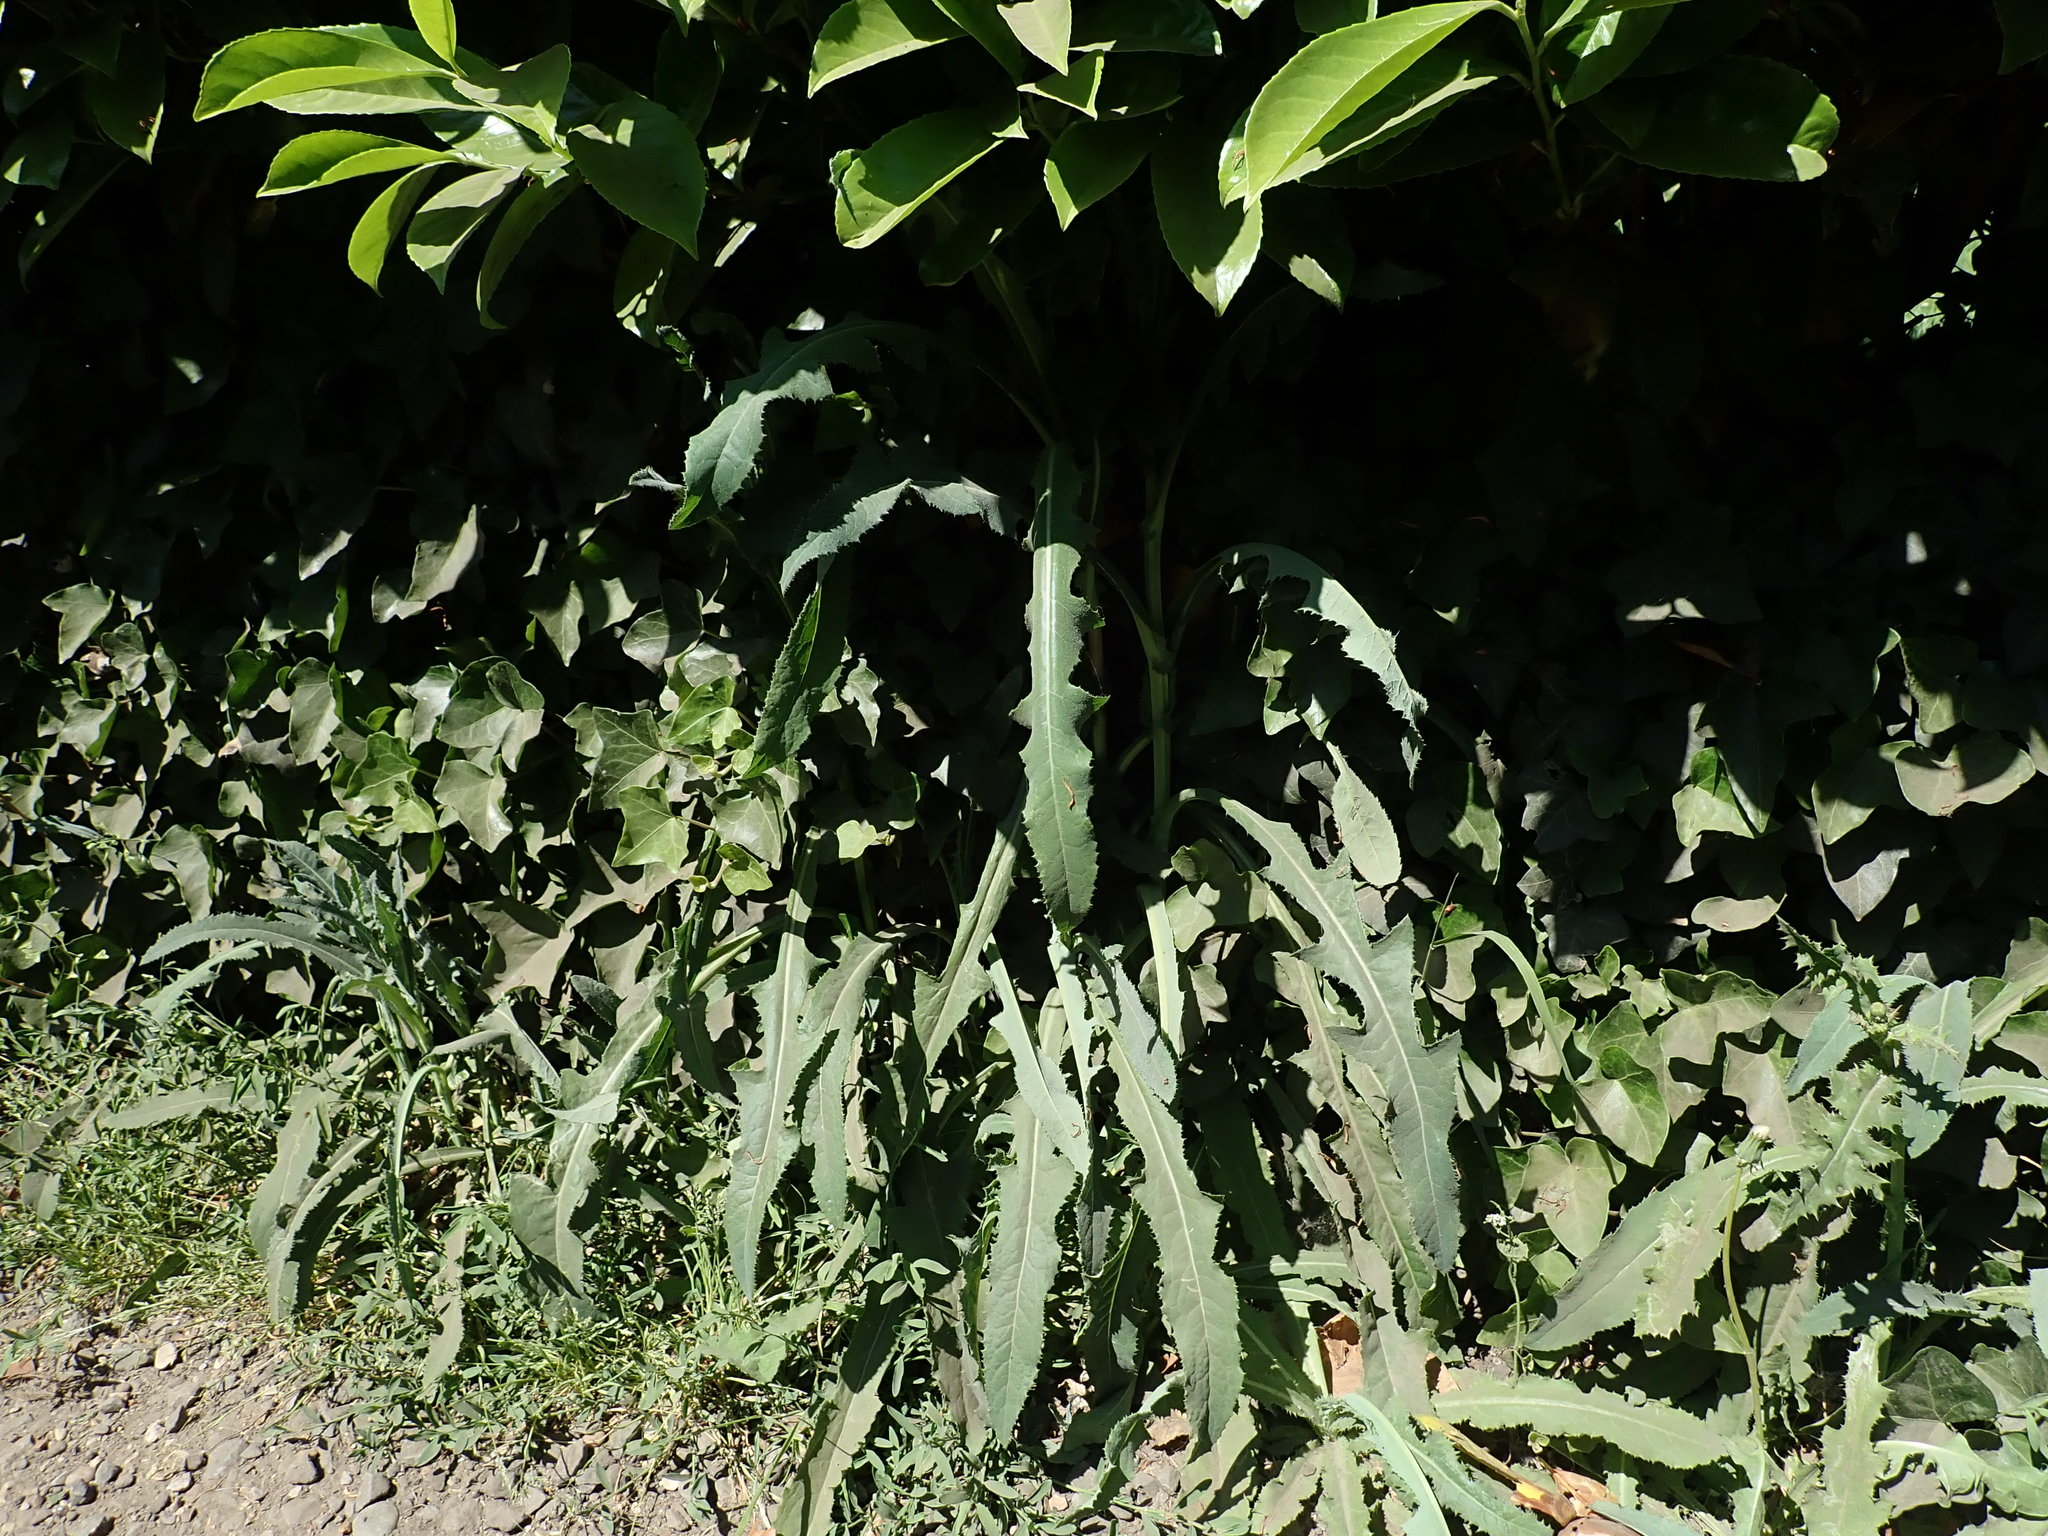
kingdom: Plantae
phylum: Tracheophyta
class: Magnoliopsida
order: Asterales
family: Asteraceae
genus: Sonchus
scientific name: Sonchus arvensis
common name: Perennial sow-thistle
